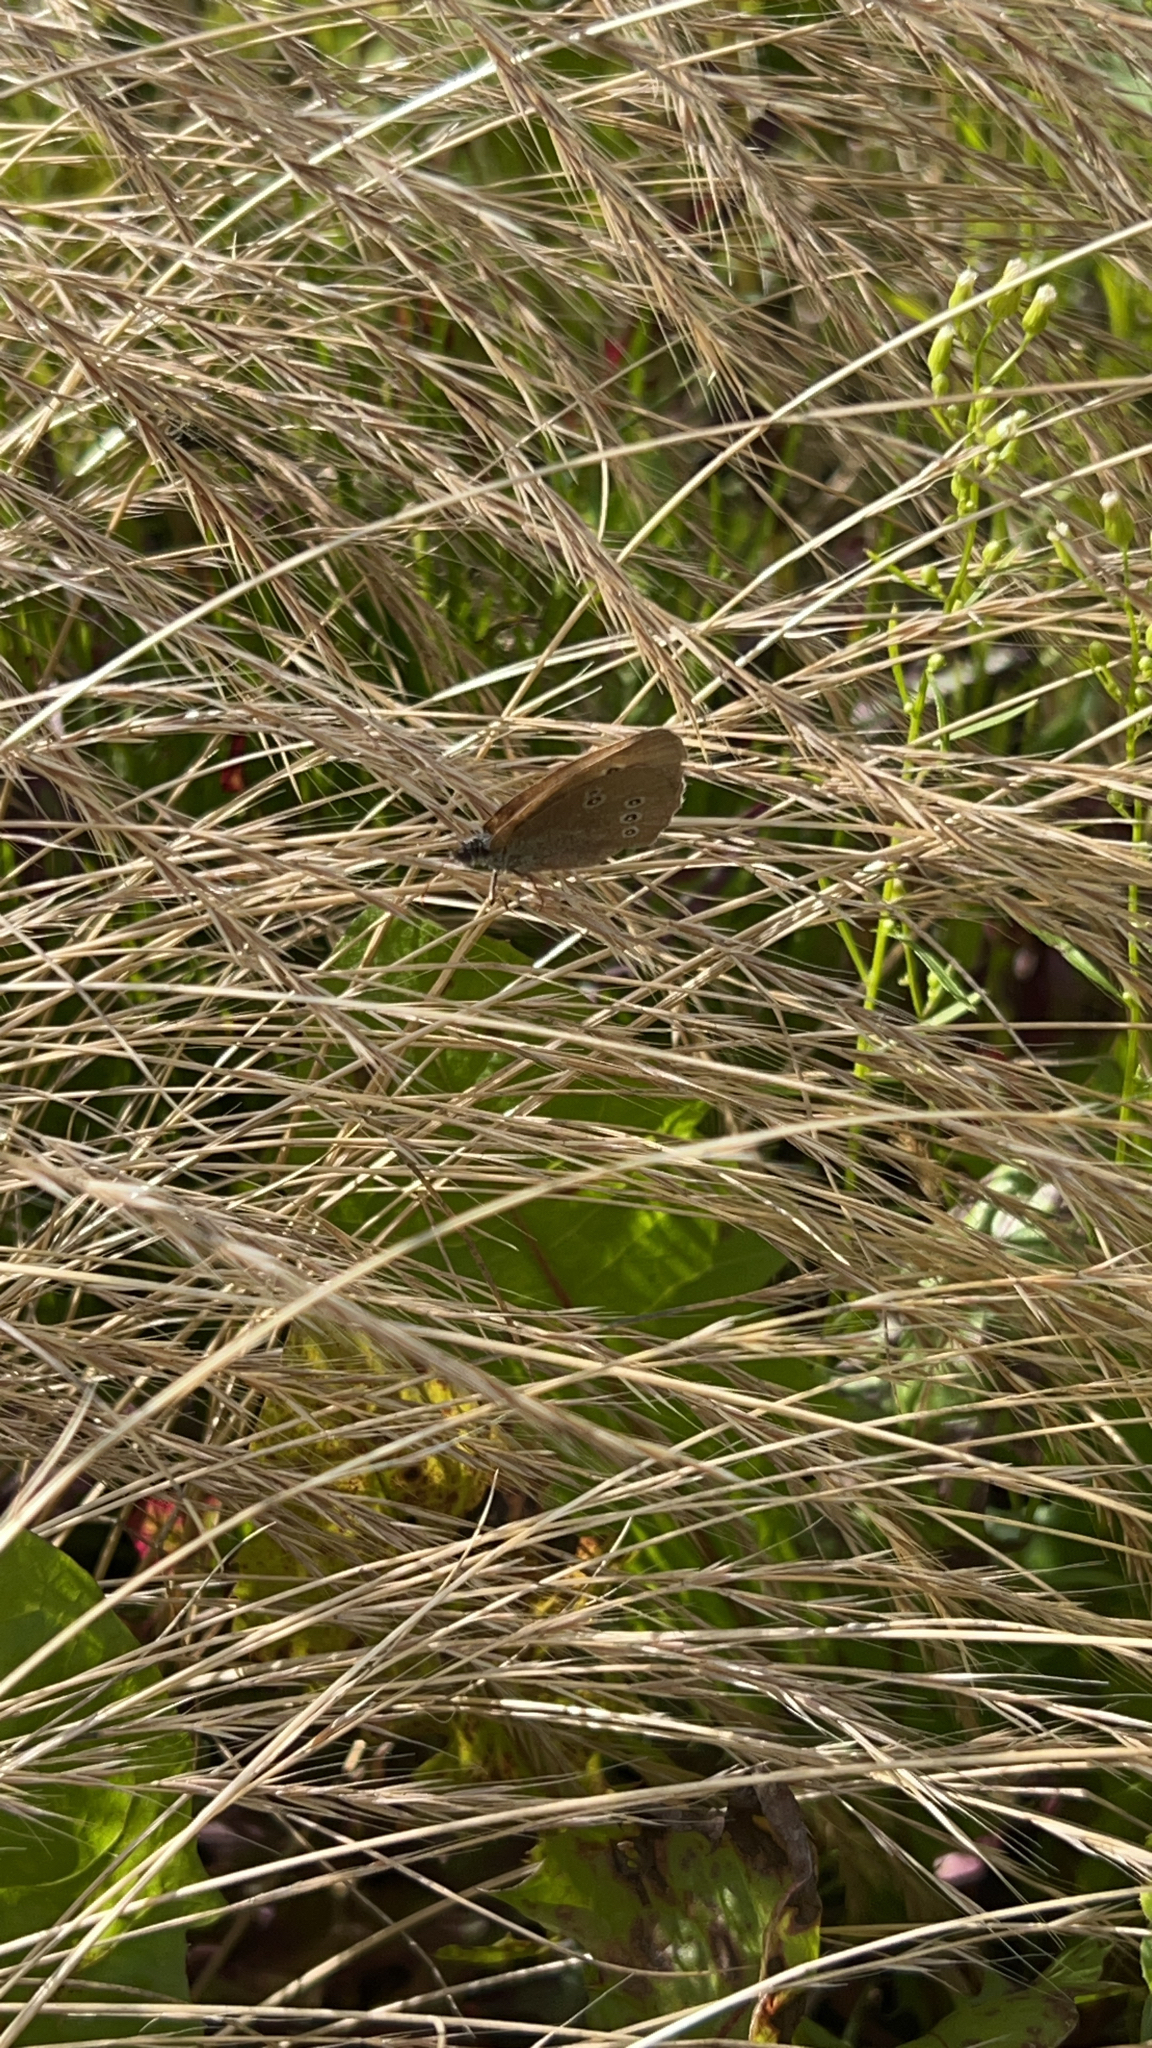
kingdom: Animalia
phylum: Arthropoda
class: Insecta
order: Lepidoptera
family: Nymphalidae
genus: Aphantopus
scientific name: Aphantopus hyperantus
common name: Ringlet
